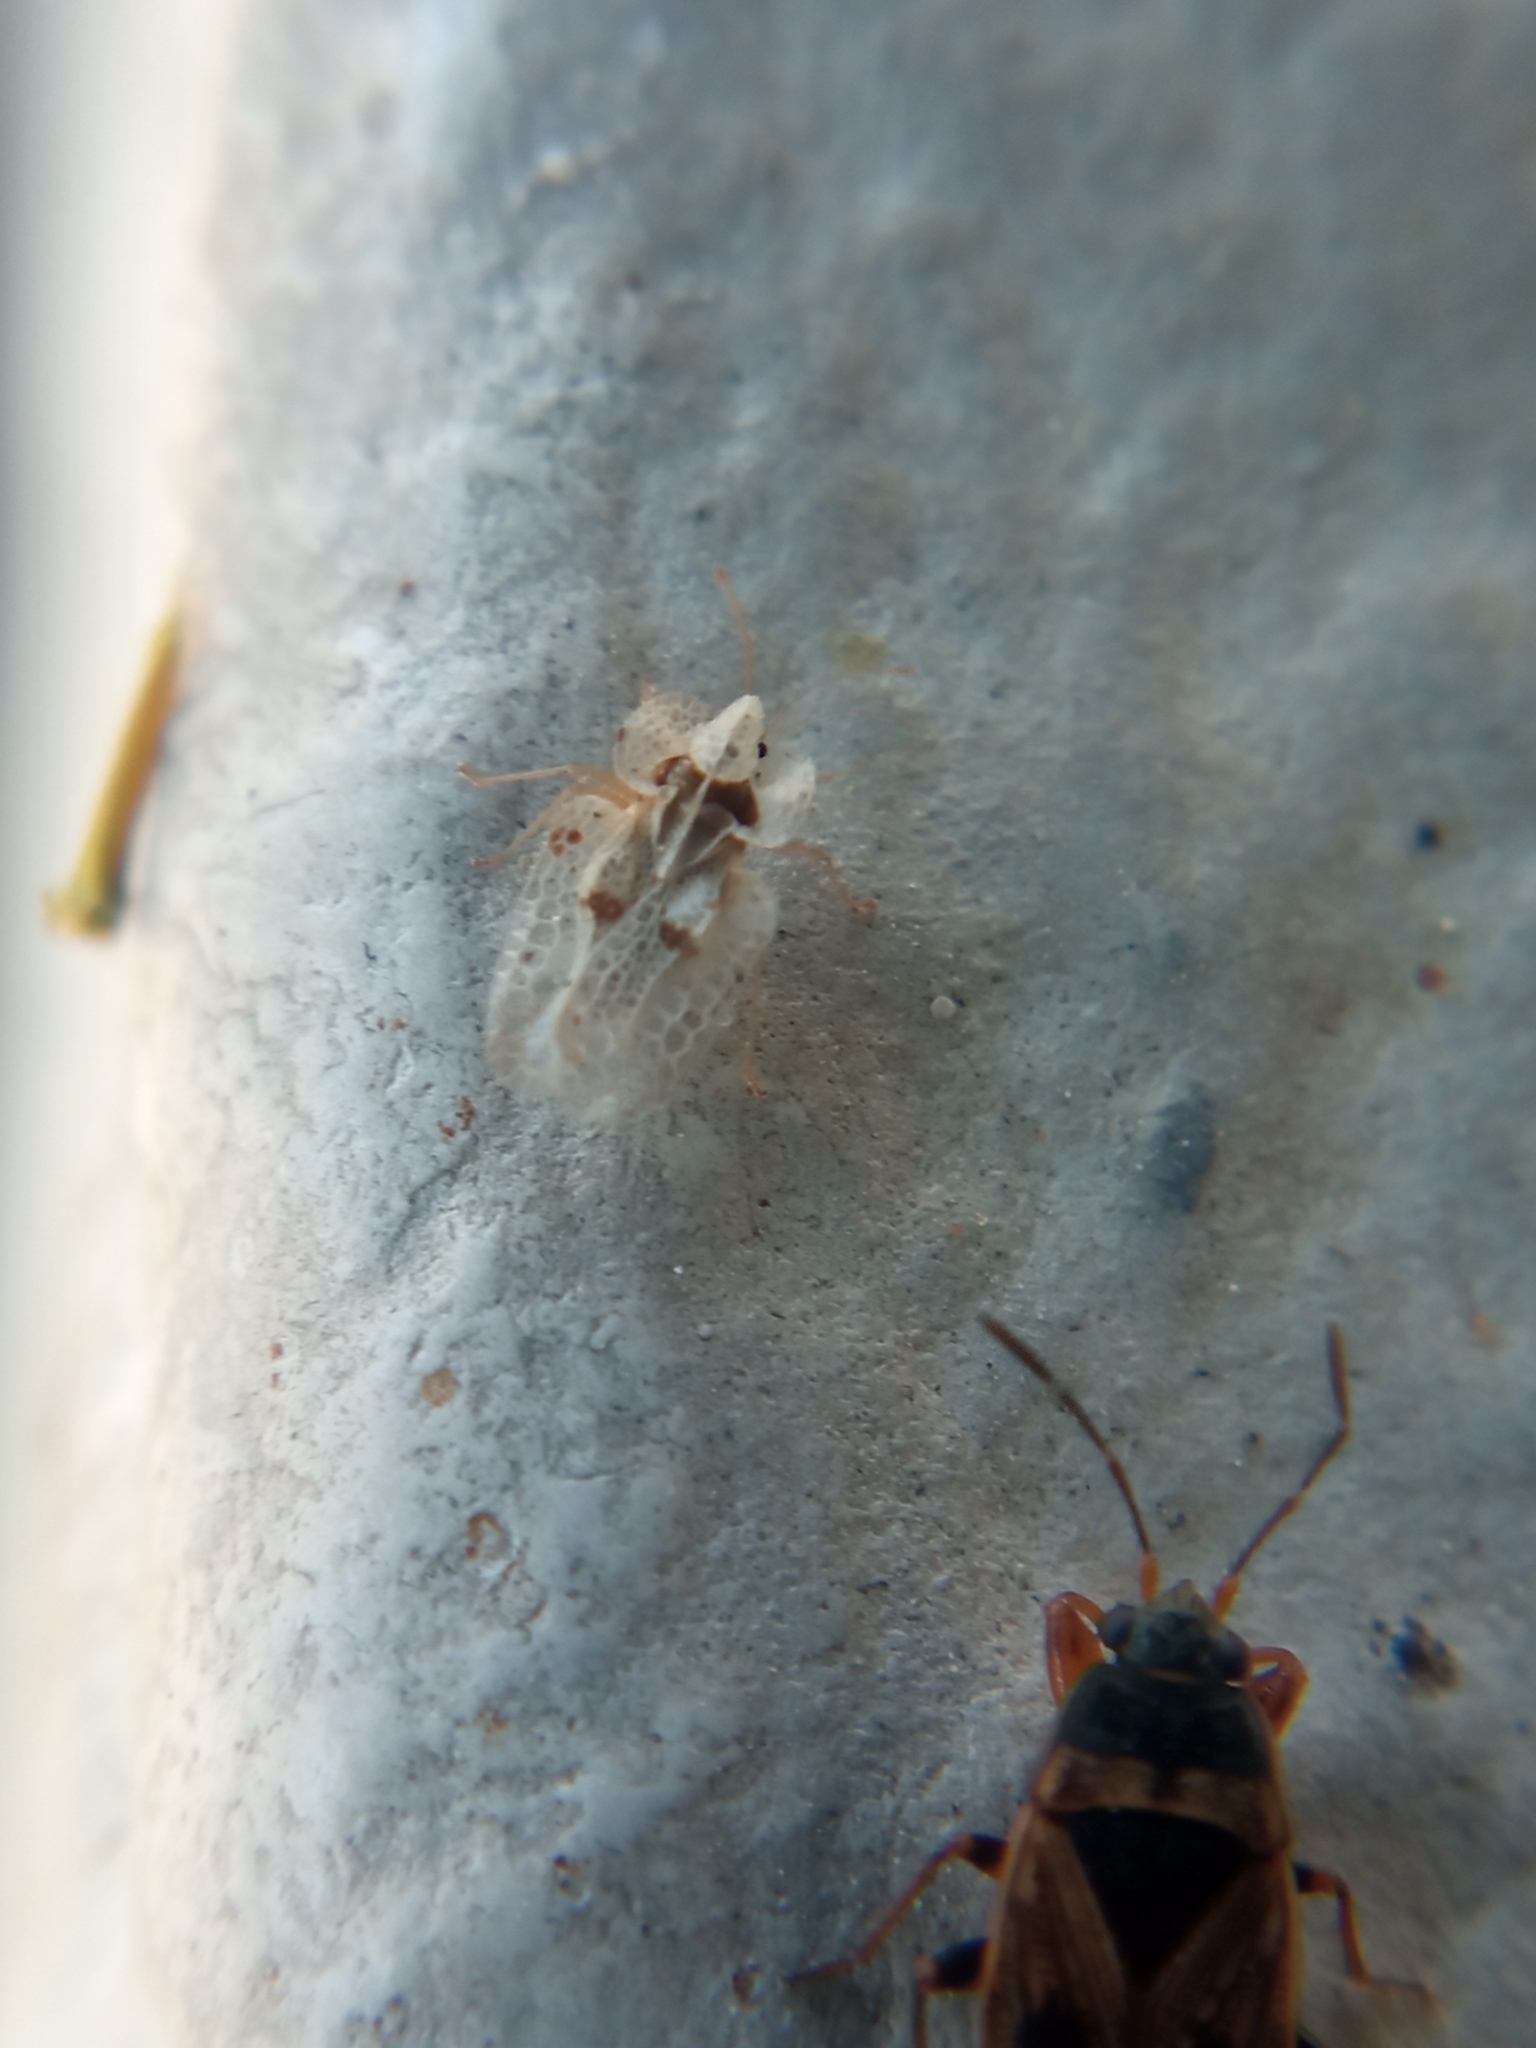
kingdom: Animalia
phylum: Arthropoda
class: Insecta
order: Hemiptera
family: Tingidae
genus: Corythucha
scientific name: Corythucha ciliata
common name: Sycamore lace bug
